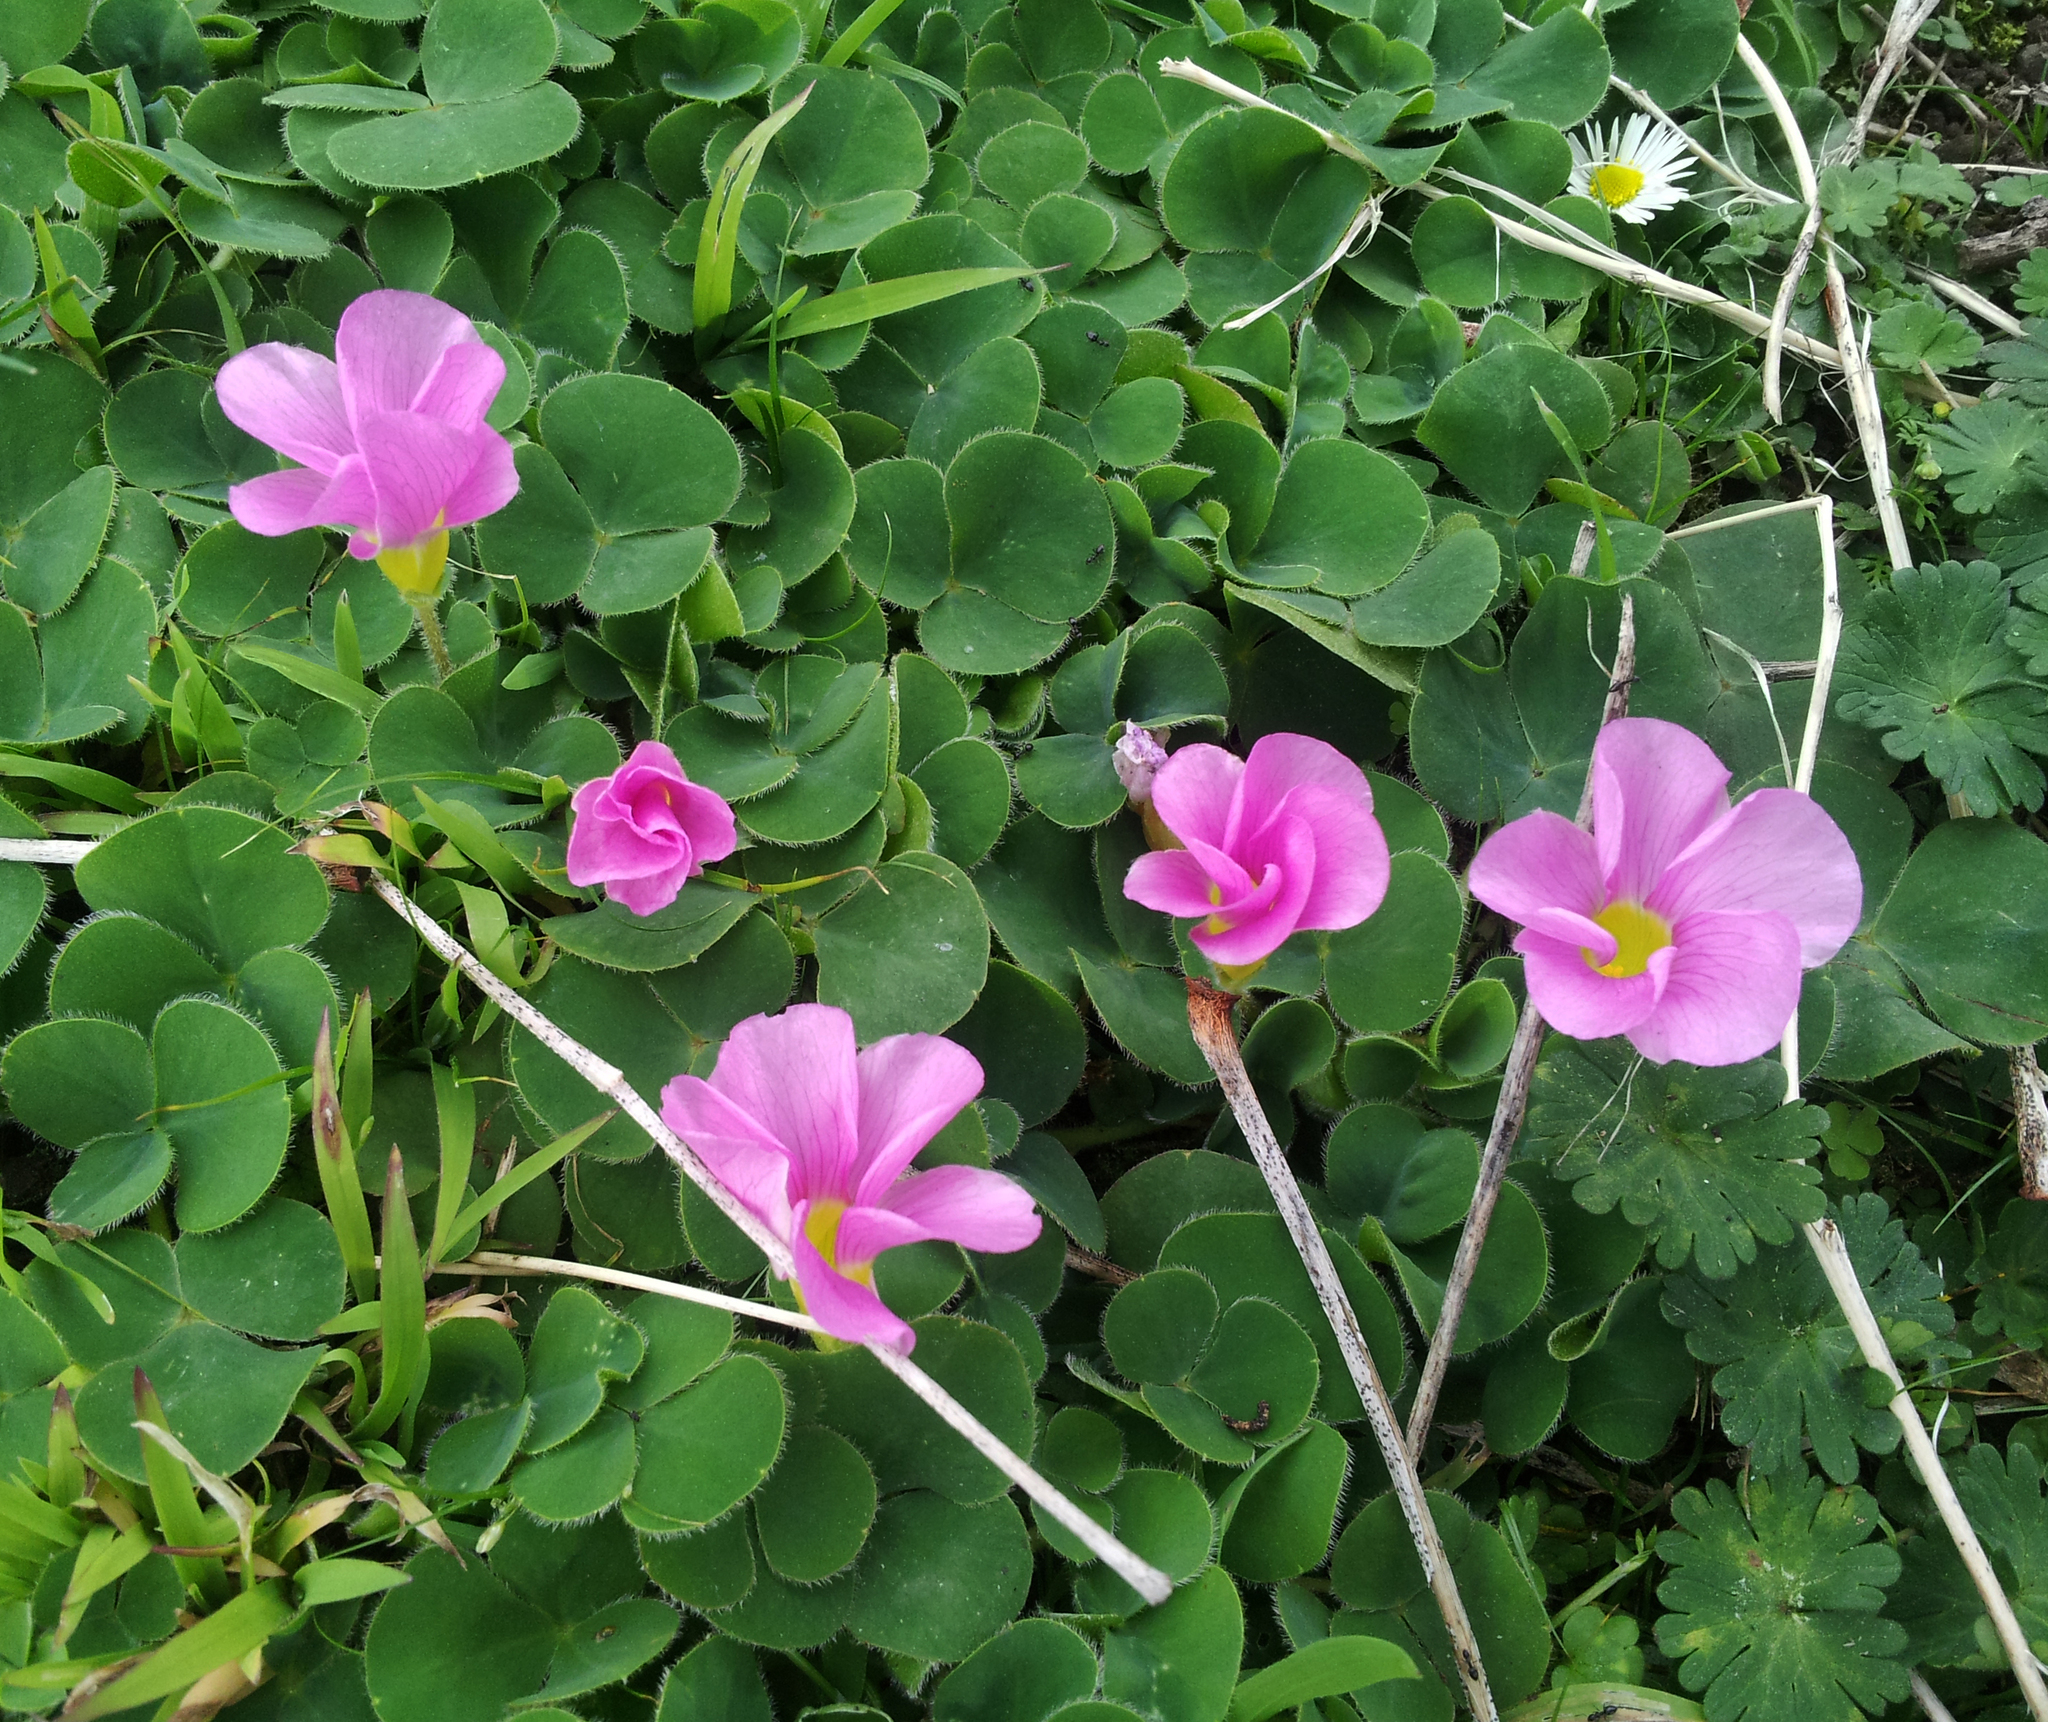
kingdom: Plantae
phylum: Tracheophyta
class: Magnoliopsida
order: Oxalidales
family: Oxalidaceae
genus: Oxalis
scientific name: Oxalis purpurea
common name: Purple woodsorrel
